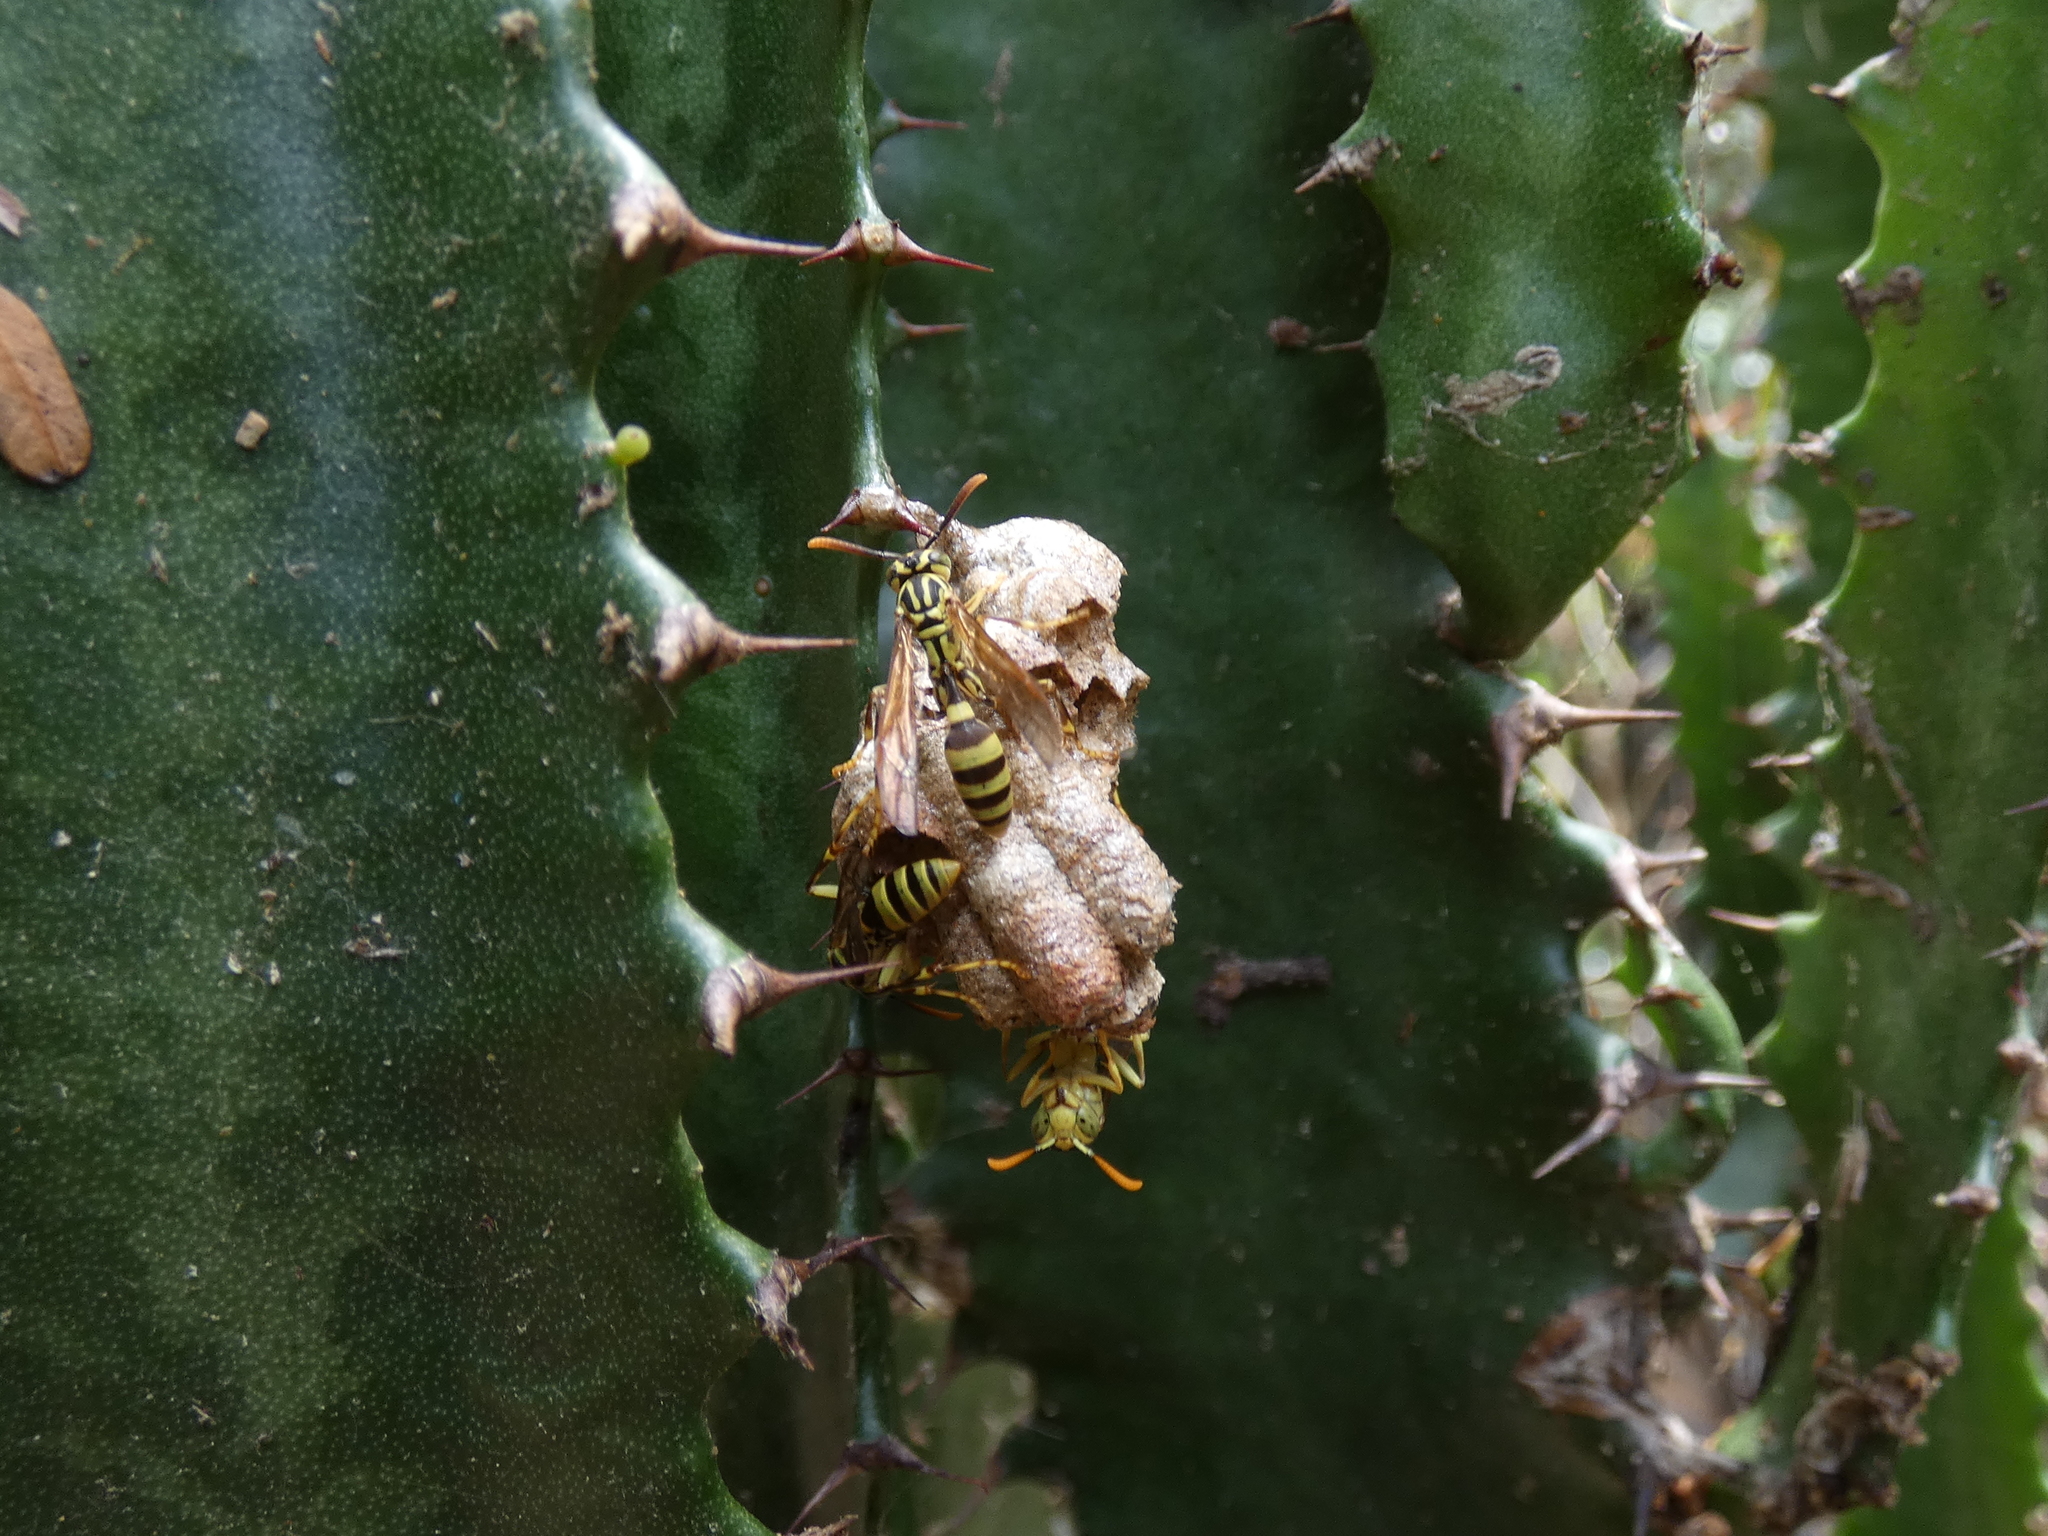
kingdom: Animalia
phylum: Arthropoda
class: Insecta
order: Hymenoptera
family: Vespidae
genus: Mischocyttarus
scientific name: Mischocyttarus basimacula
